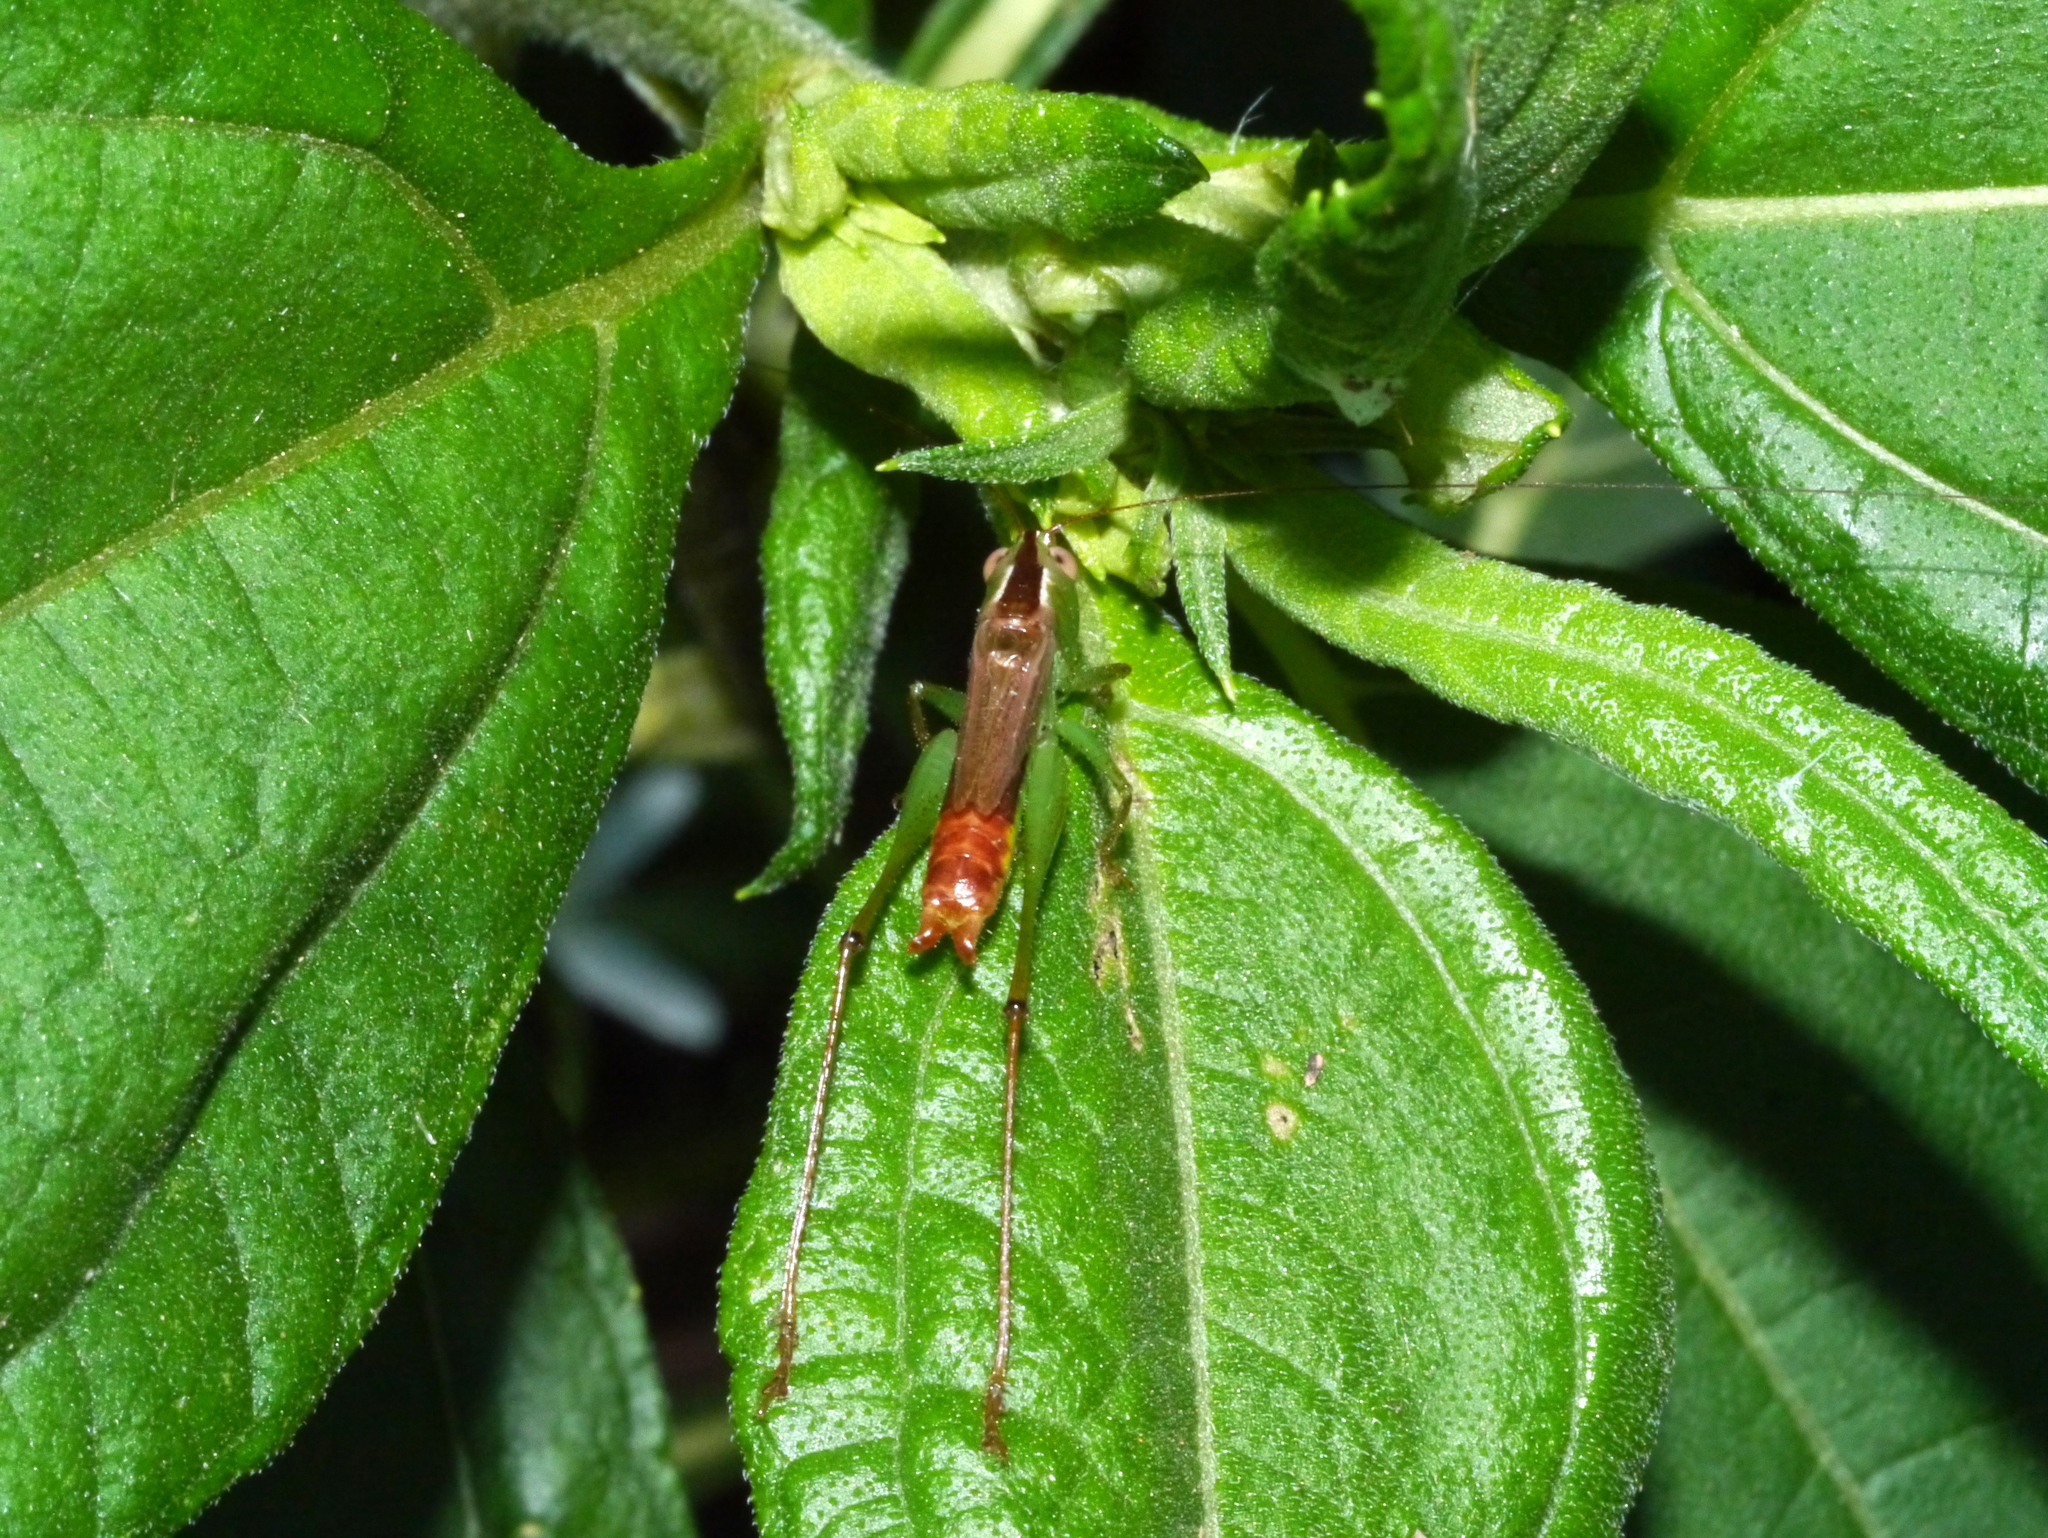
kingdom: Animalia
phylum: Arthropoda
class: Insecta
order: Orthoptera
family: Tettigoniidae
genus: Conocephalus
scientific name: Conocephalus brevipennis
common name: Short-winged meadow katydid
